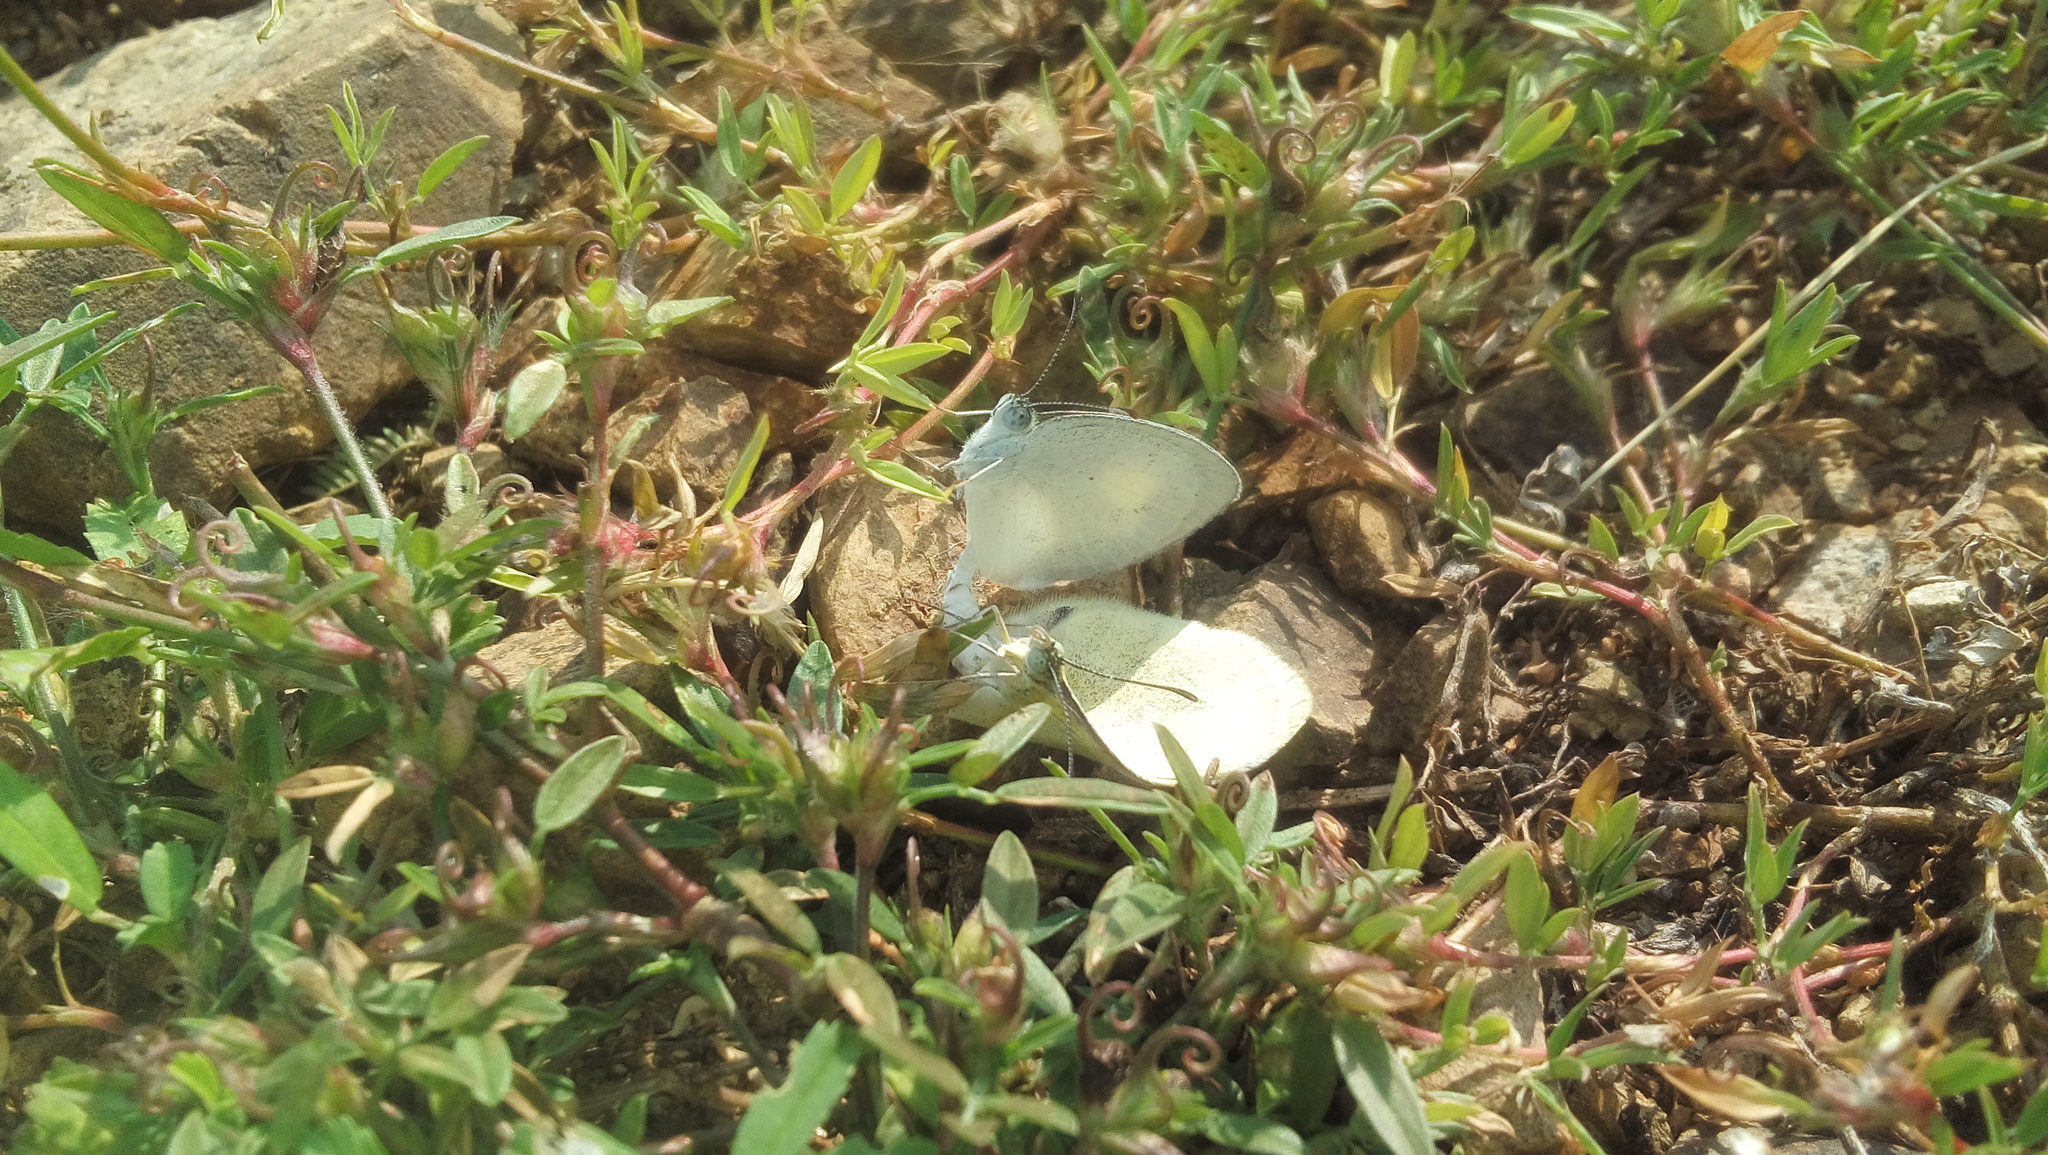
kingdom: Animalia
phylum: Arthropoda
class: Insecta
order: Lepidoptera
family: Pieridae
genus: Eurema
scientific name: Eurema daira
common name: Barred sulphur
